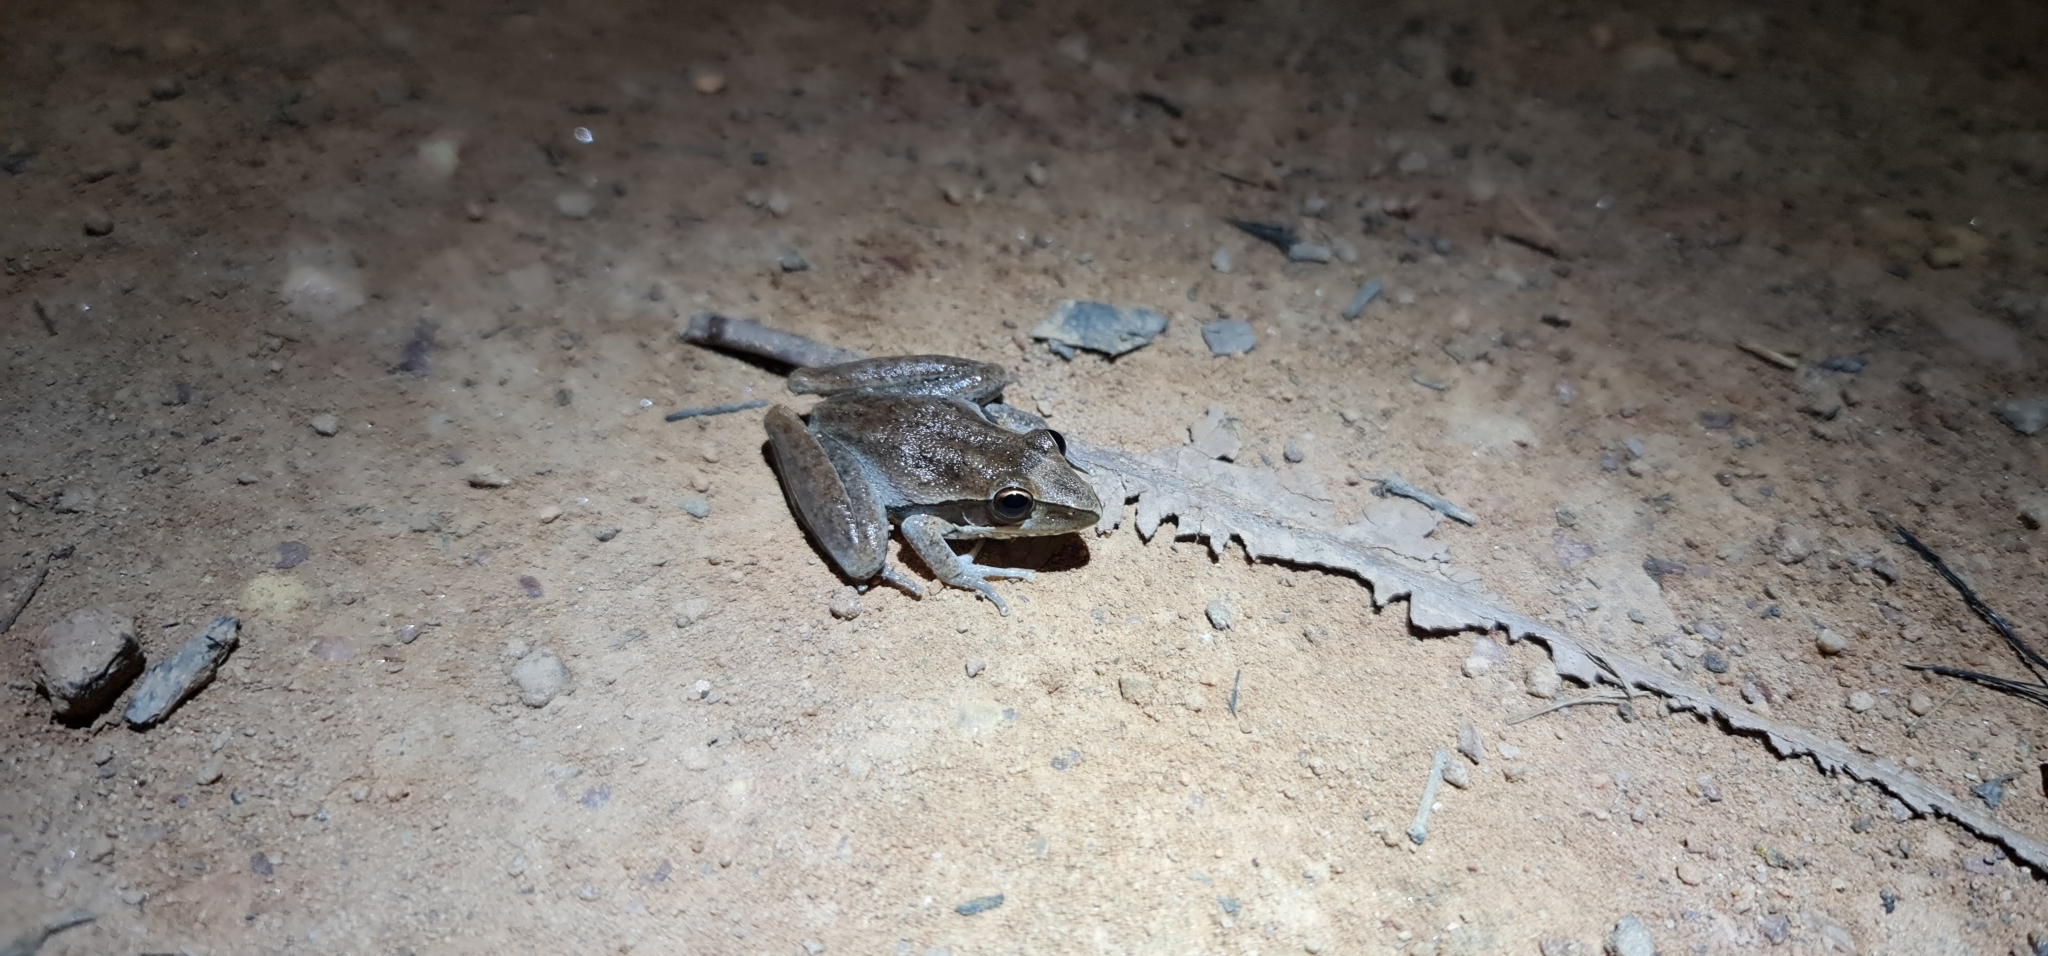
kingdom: Animalia
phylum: Chordata
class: Amphibia
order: Anura
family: Pelodryadidae
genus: Litoria
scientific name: Litoria watjulumensis
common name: Wotjulum frog
